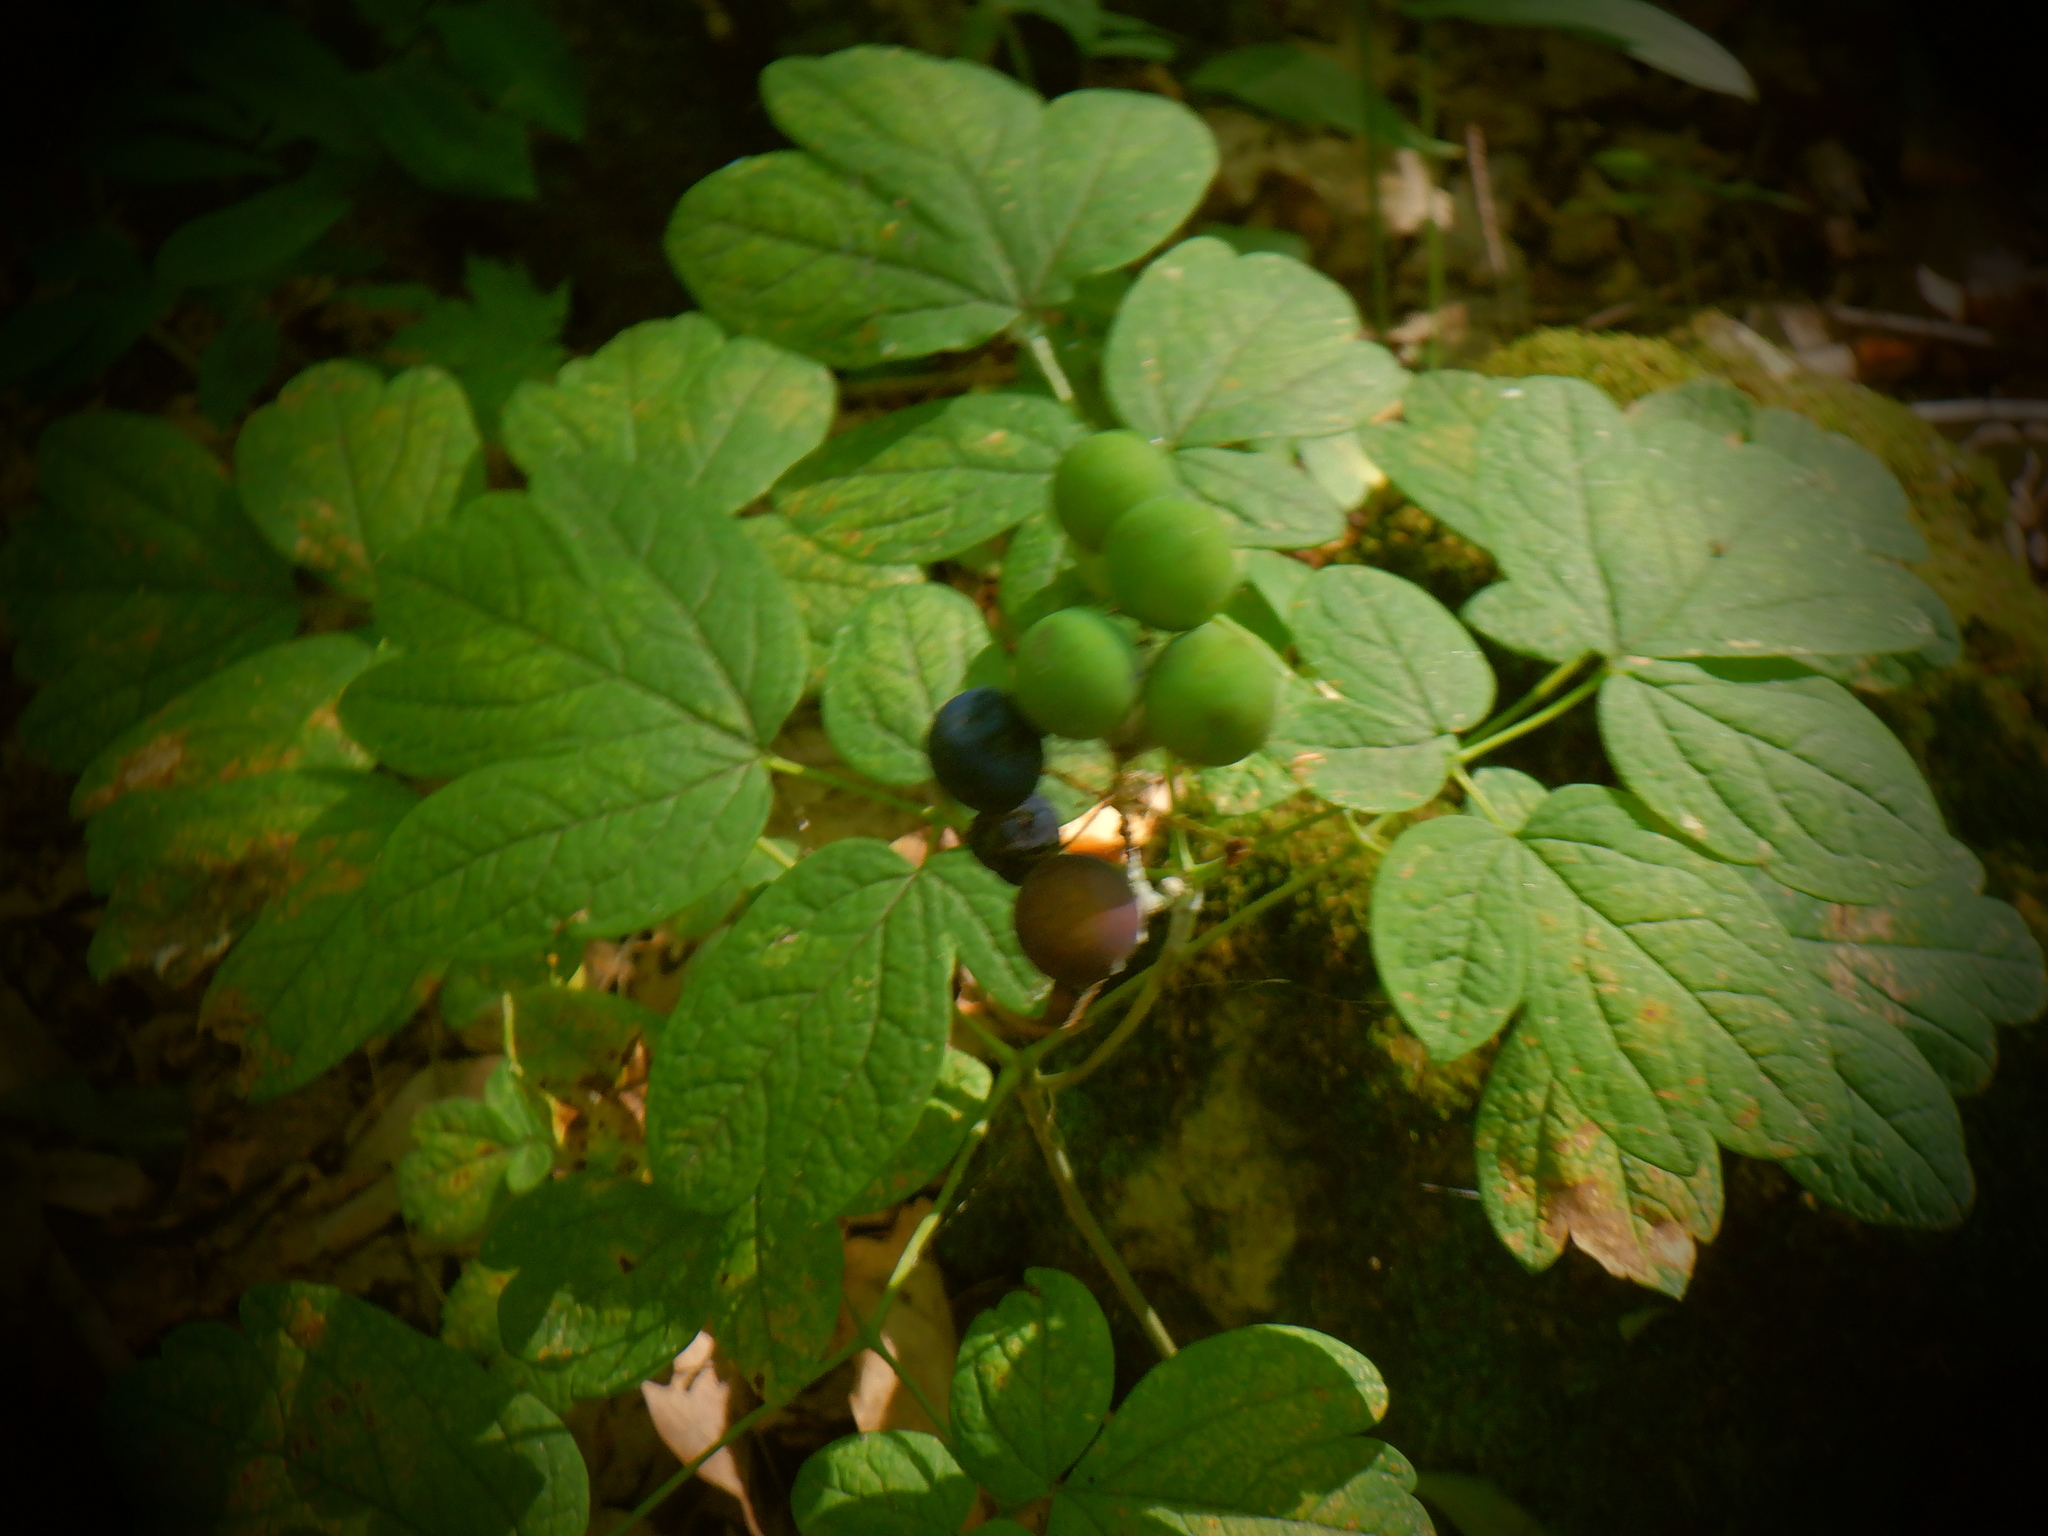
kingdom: Plantae
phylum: Tracheophyta
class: Magnoliopsida
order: Ranunculales
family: Berberidaceae
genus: Caulophyllum
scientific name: Caulophyllum thalictroides
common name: Blue cohosh
